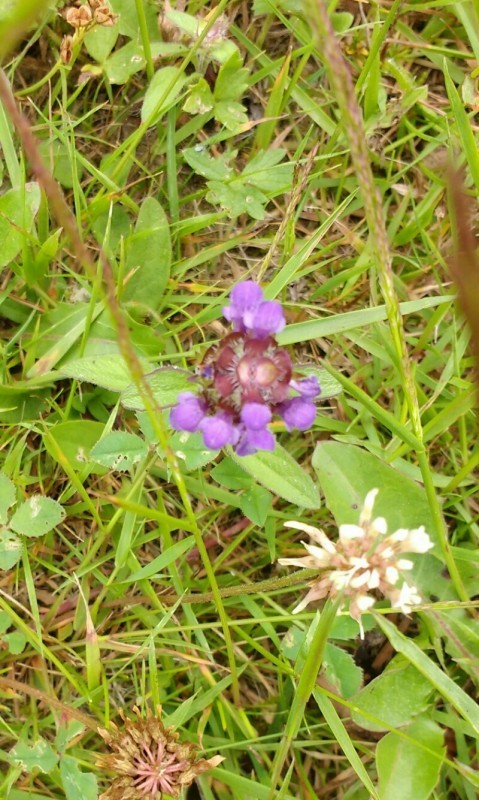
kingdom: Plantae
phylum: Tracheophyta
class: Magnoliopsida
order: Lamiales
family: Lamiaceae
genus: Prunella
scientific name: Prunella vulgaris
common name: Heal-all
